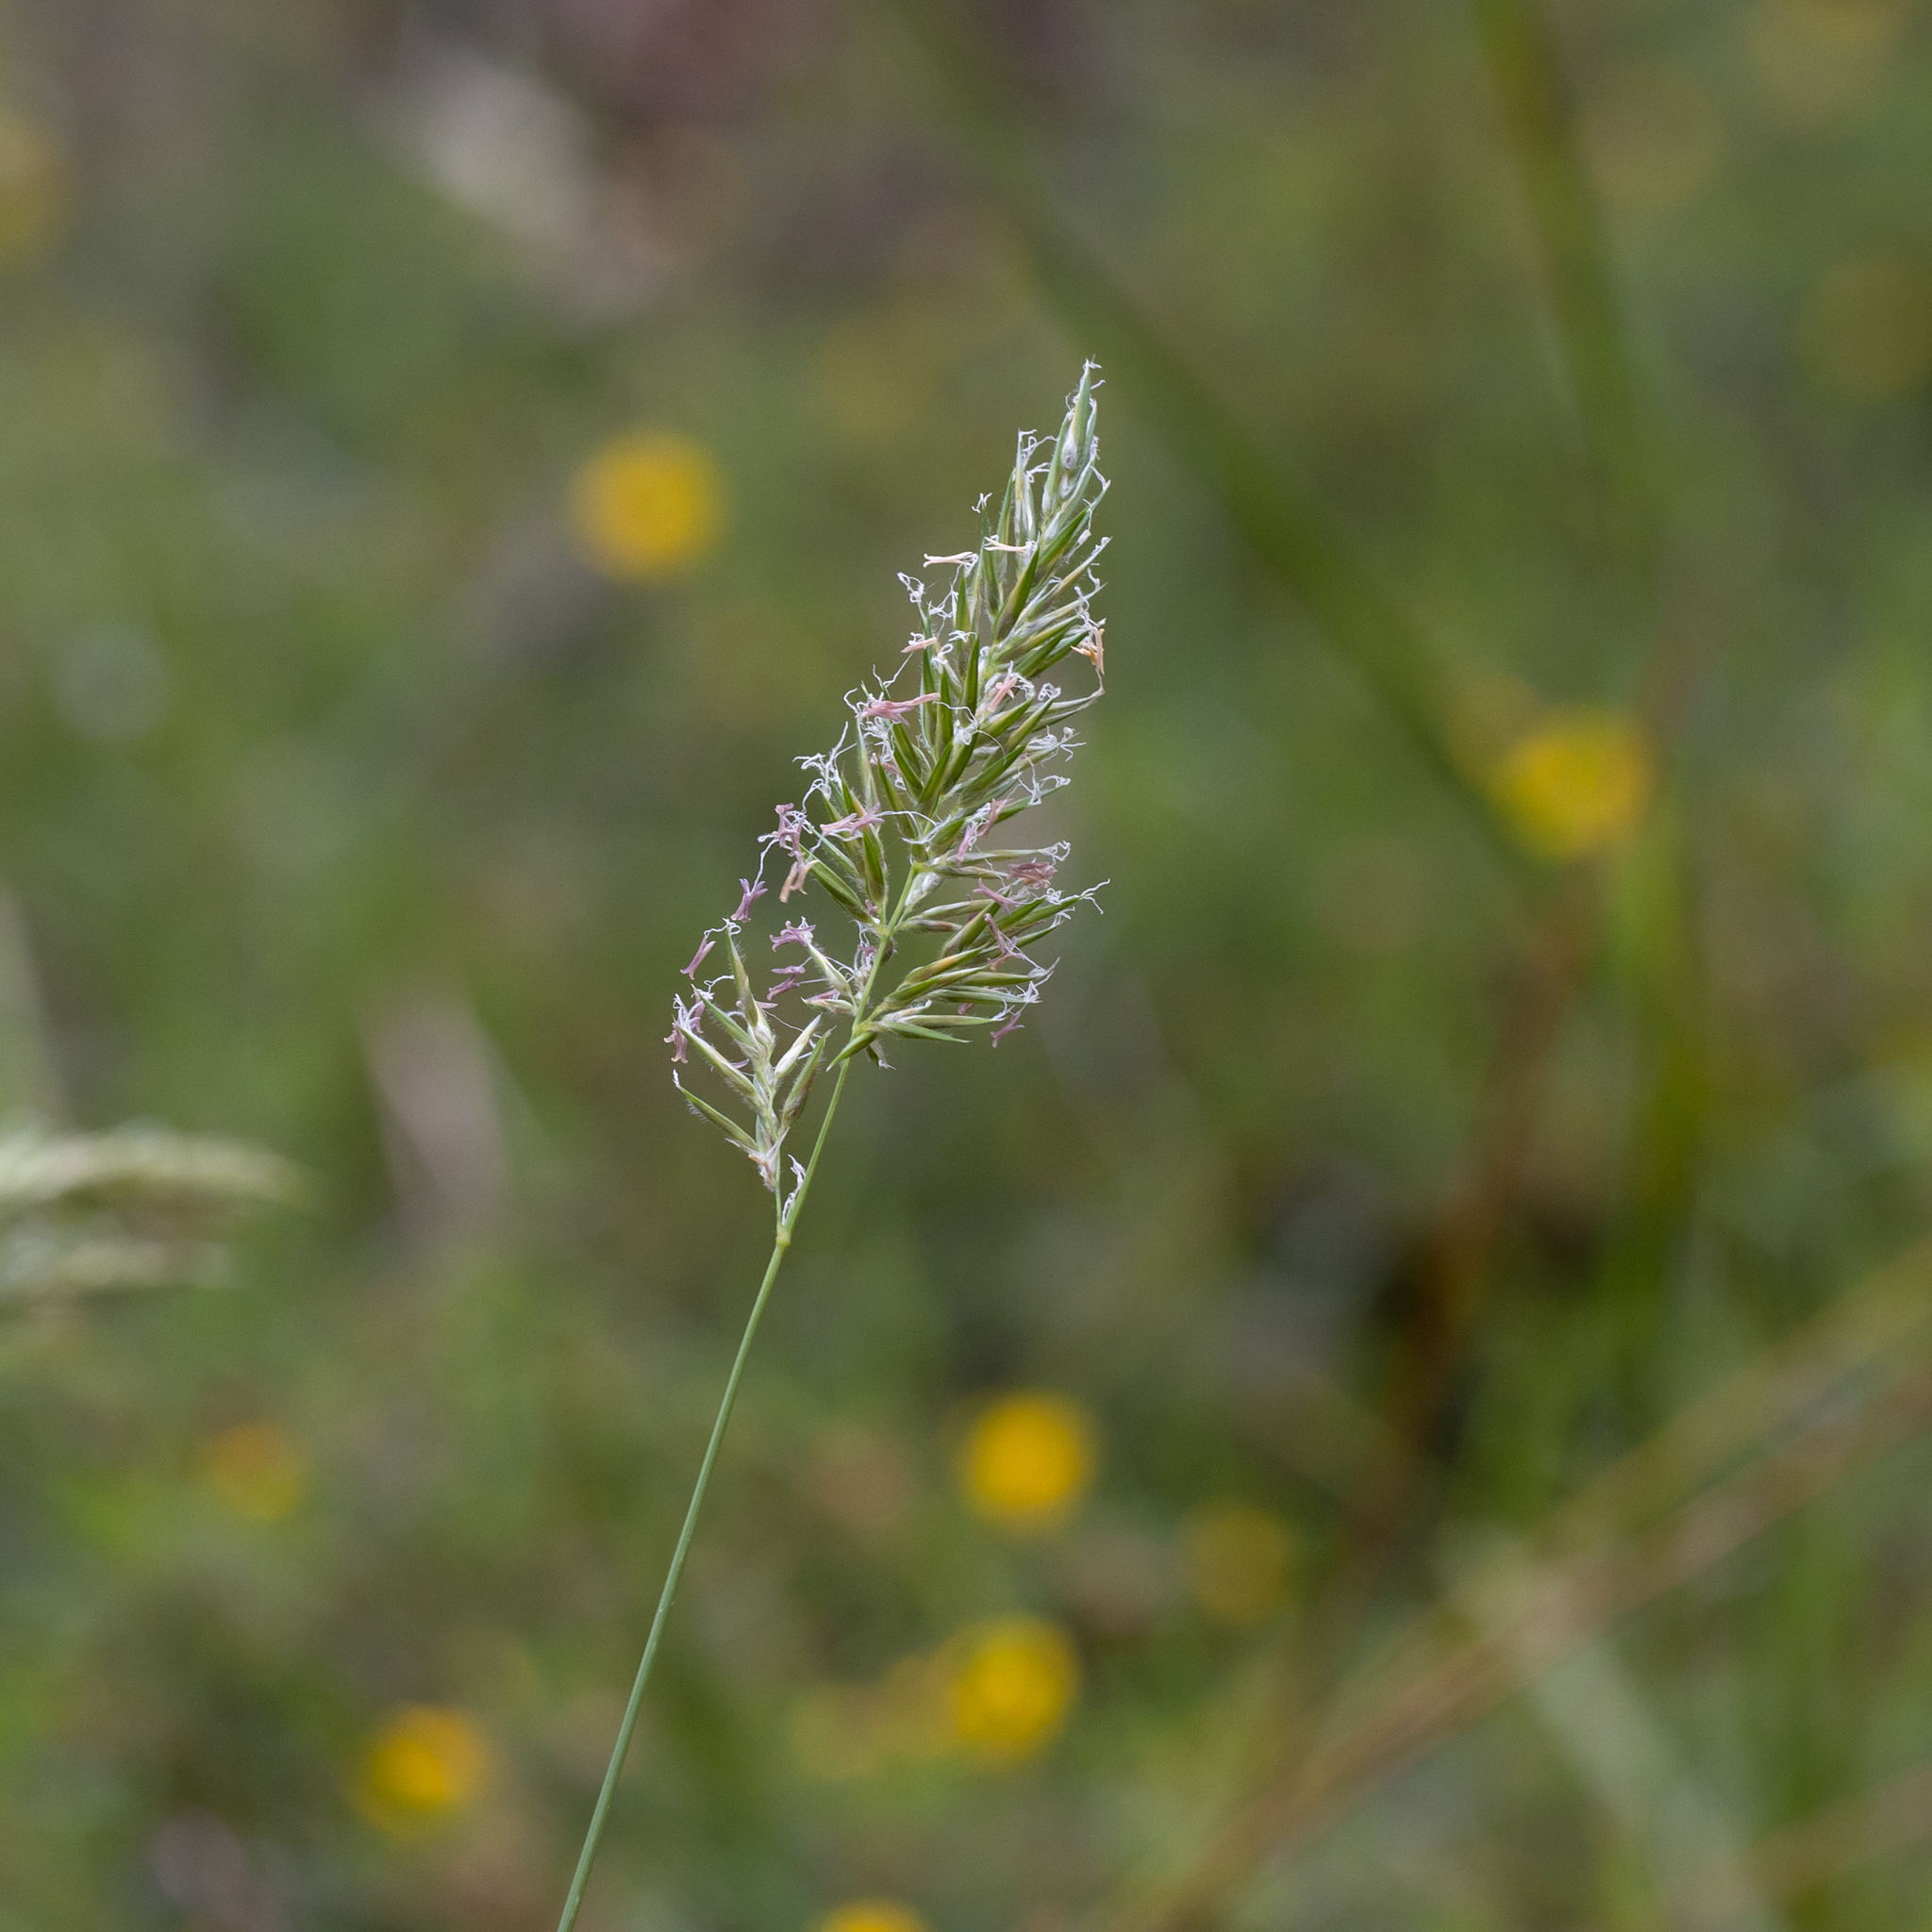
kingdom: Plantae
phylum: Tracheophyta
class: Liliopsida
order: Poales
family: Poaceae
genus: Anthoxanthum
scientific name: Anthoxanthum odoratum
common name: Sweet vernalgrass
